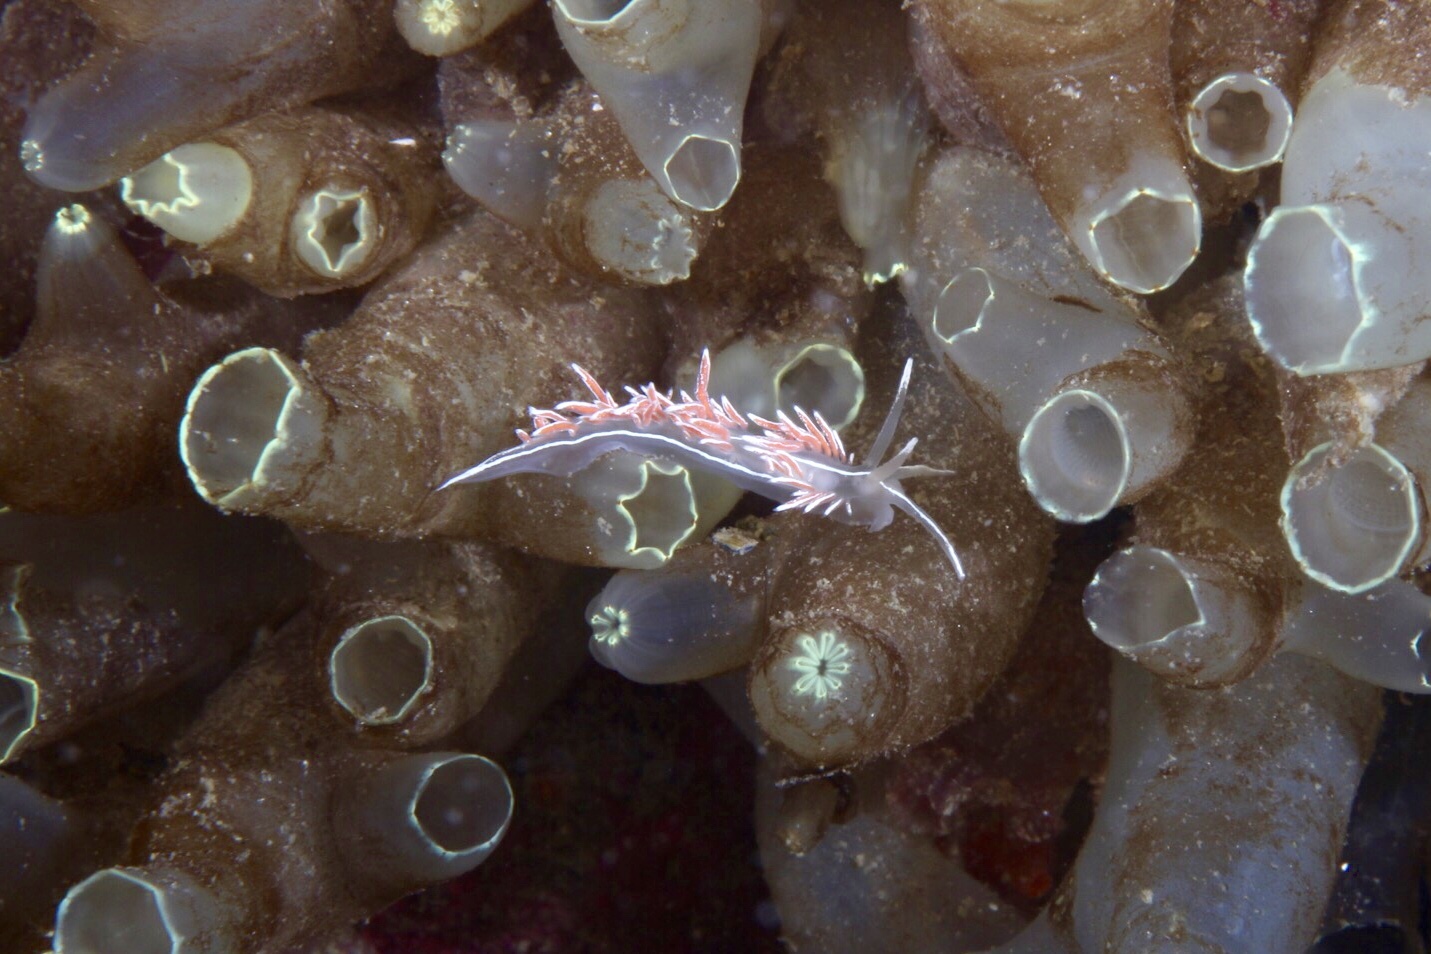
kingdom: Animalia
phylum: Mollusca
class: Gastropoda
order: Nudibranchia
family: Coryphellidae
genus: Coryphella
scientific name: Coryphella lineata
